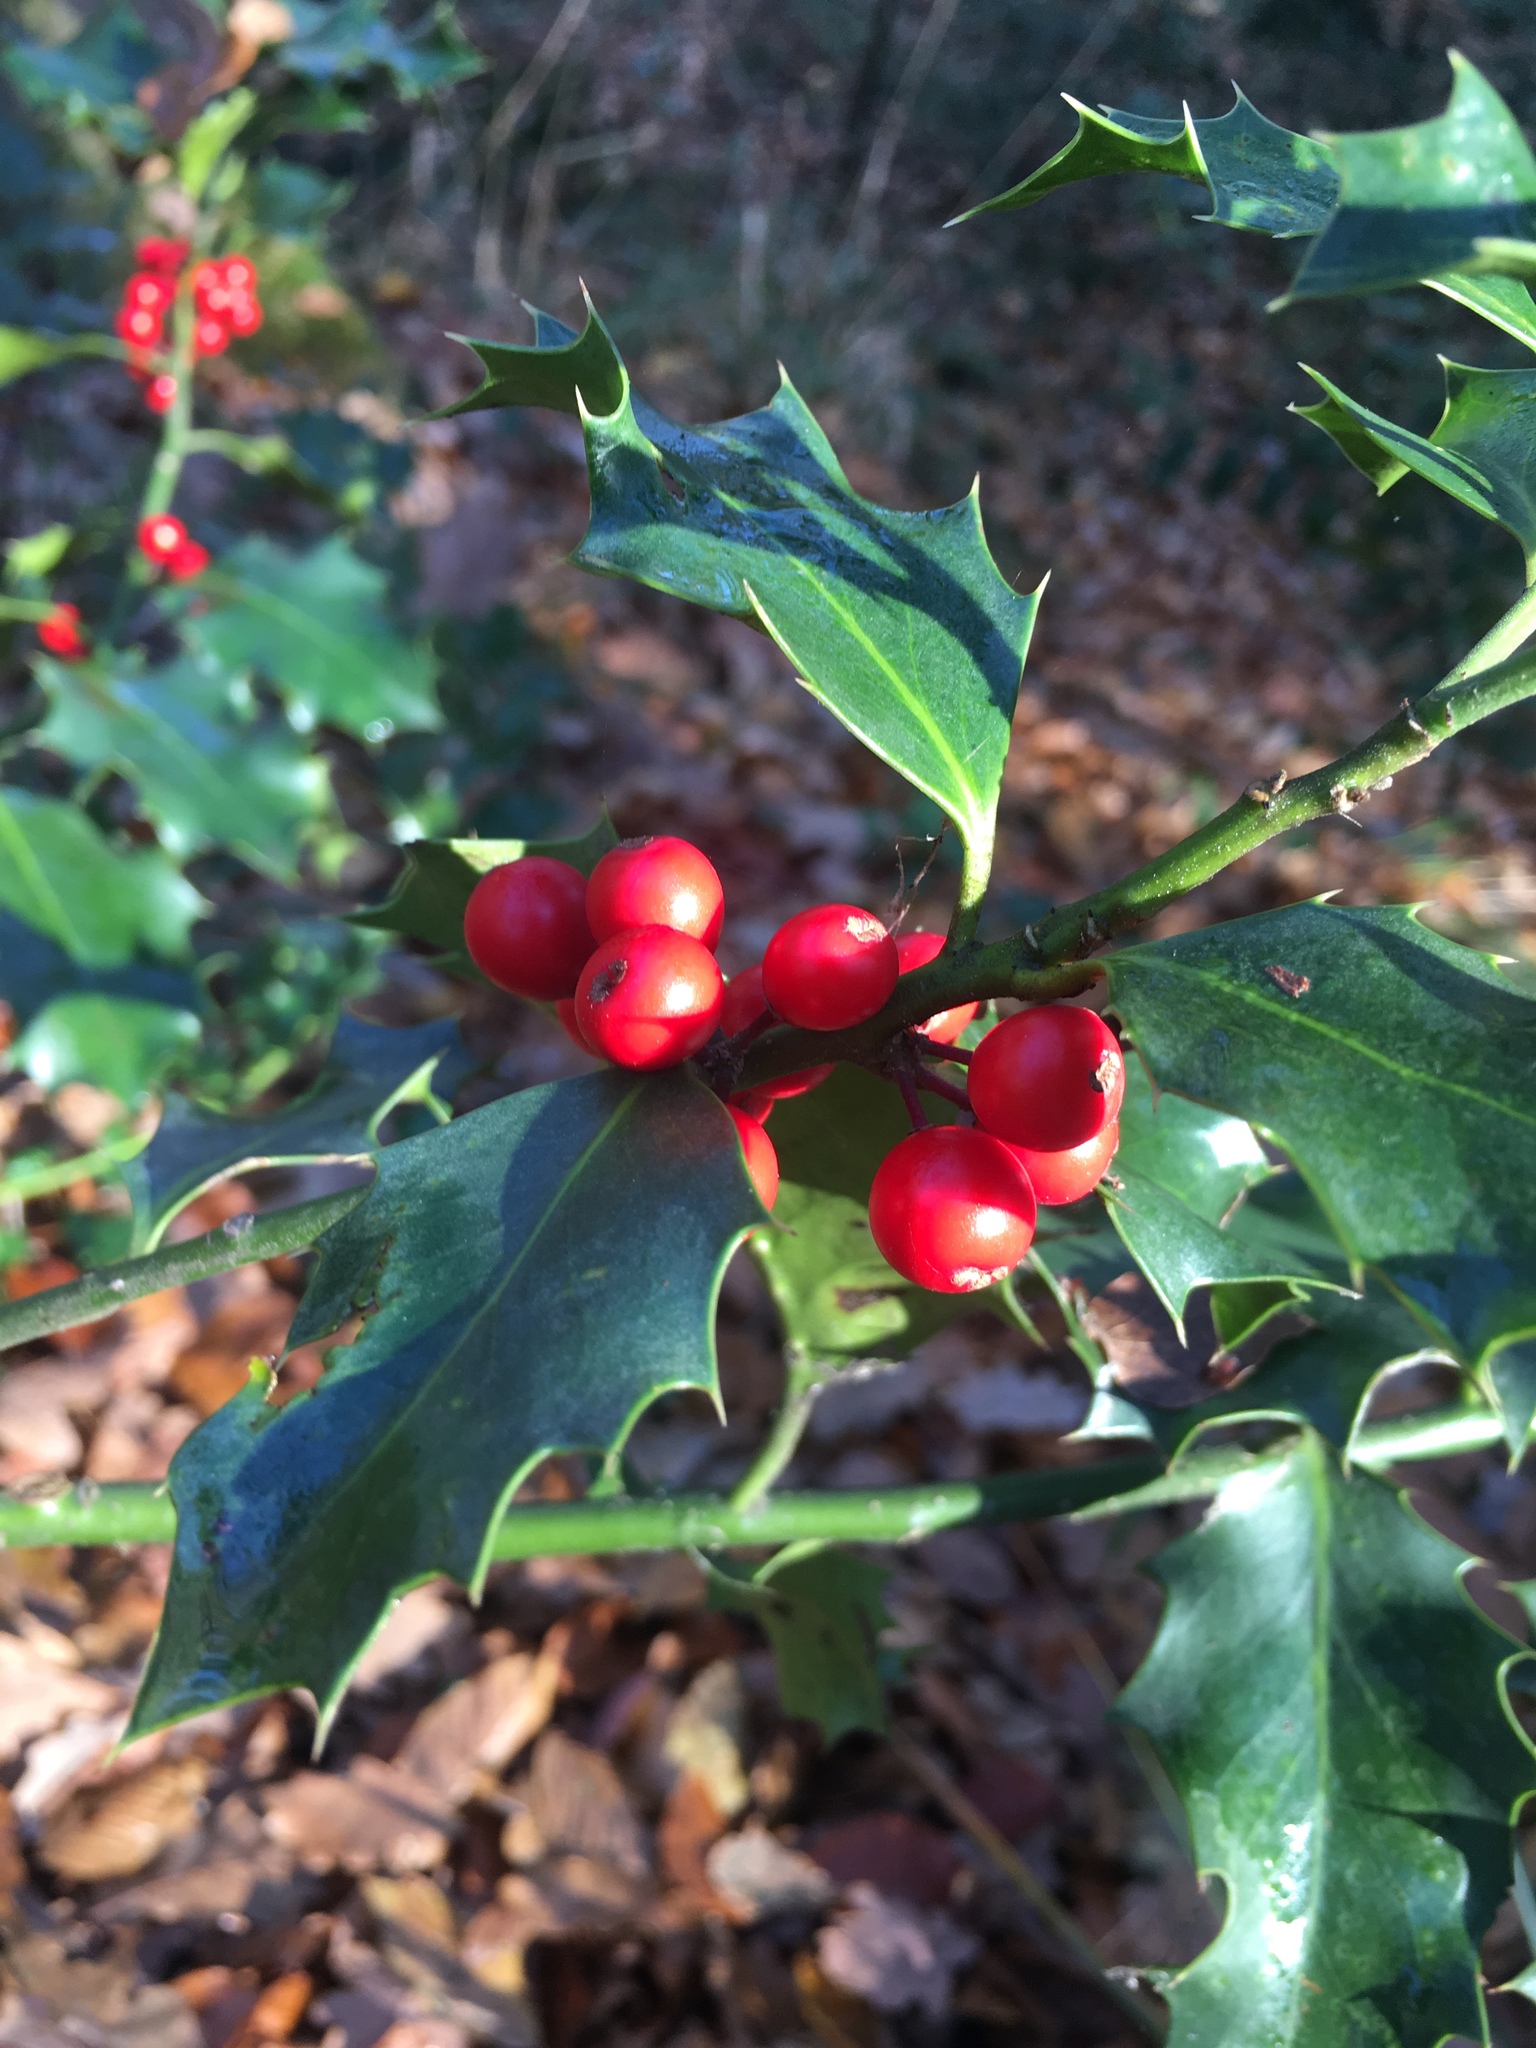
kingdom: Plantae
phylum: Tracheophyta
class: Magnoliopsida
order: Aquifoliales
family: Aquifoliaceae
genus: Ilex
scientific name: Ilex aquifolium
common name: English holly
